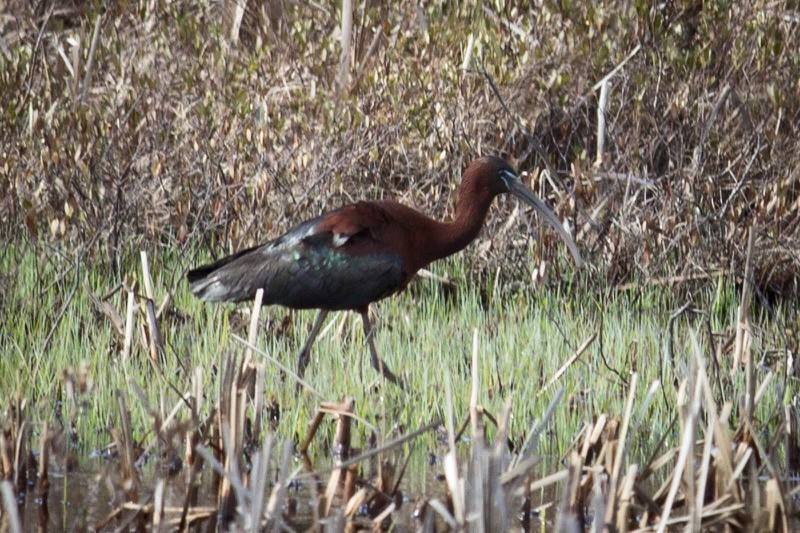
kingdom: Animalia
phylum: Chordata
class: Aves
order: Pelecaniformes
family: Threskiornithidae
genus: Plegadis
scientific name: Plegadis falcinellus
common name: Glossy ibis
